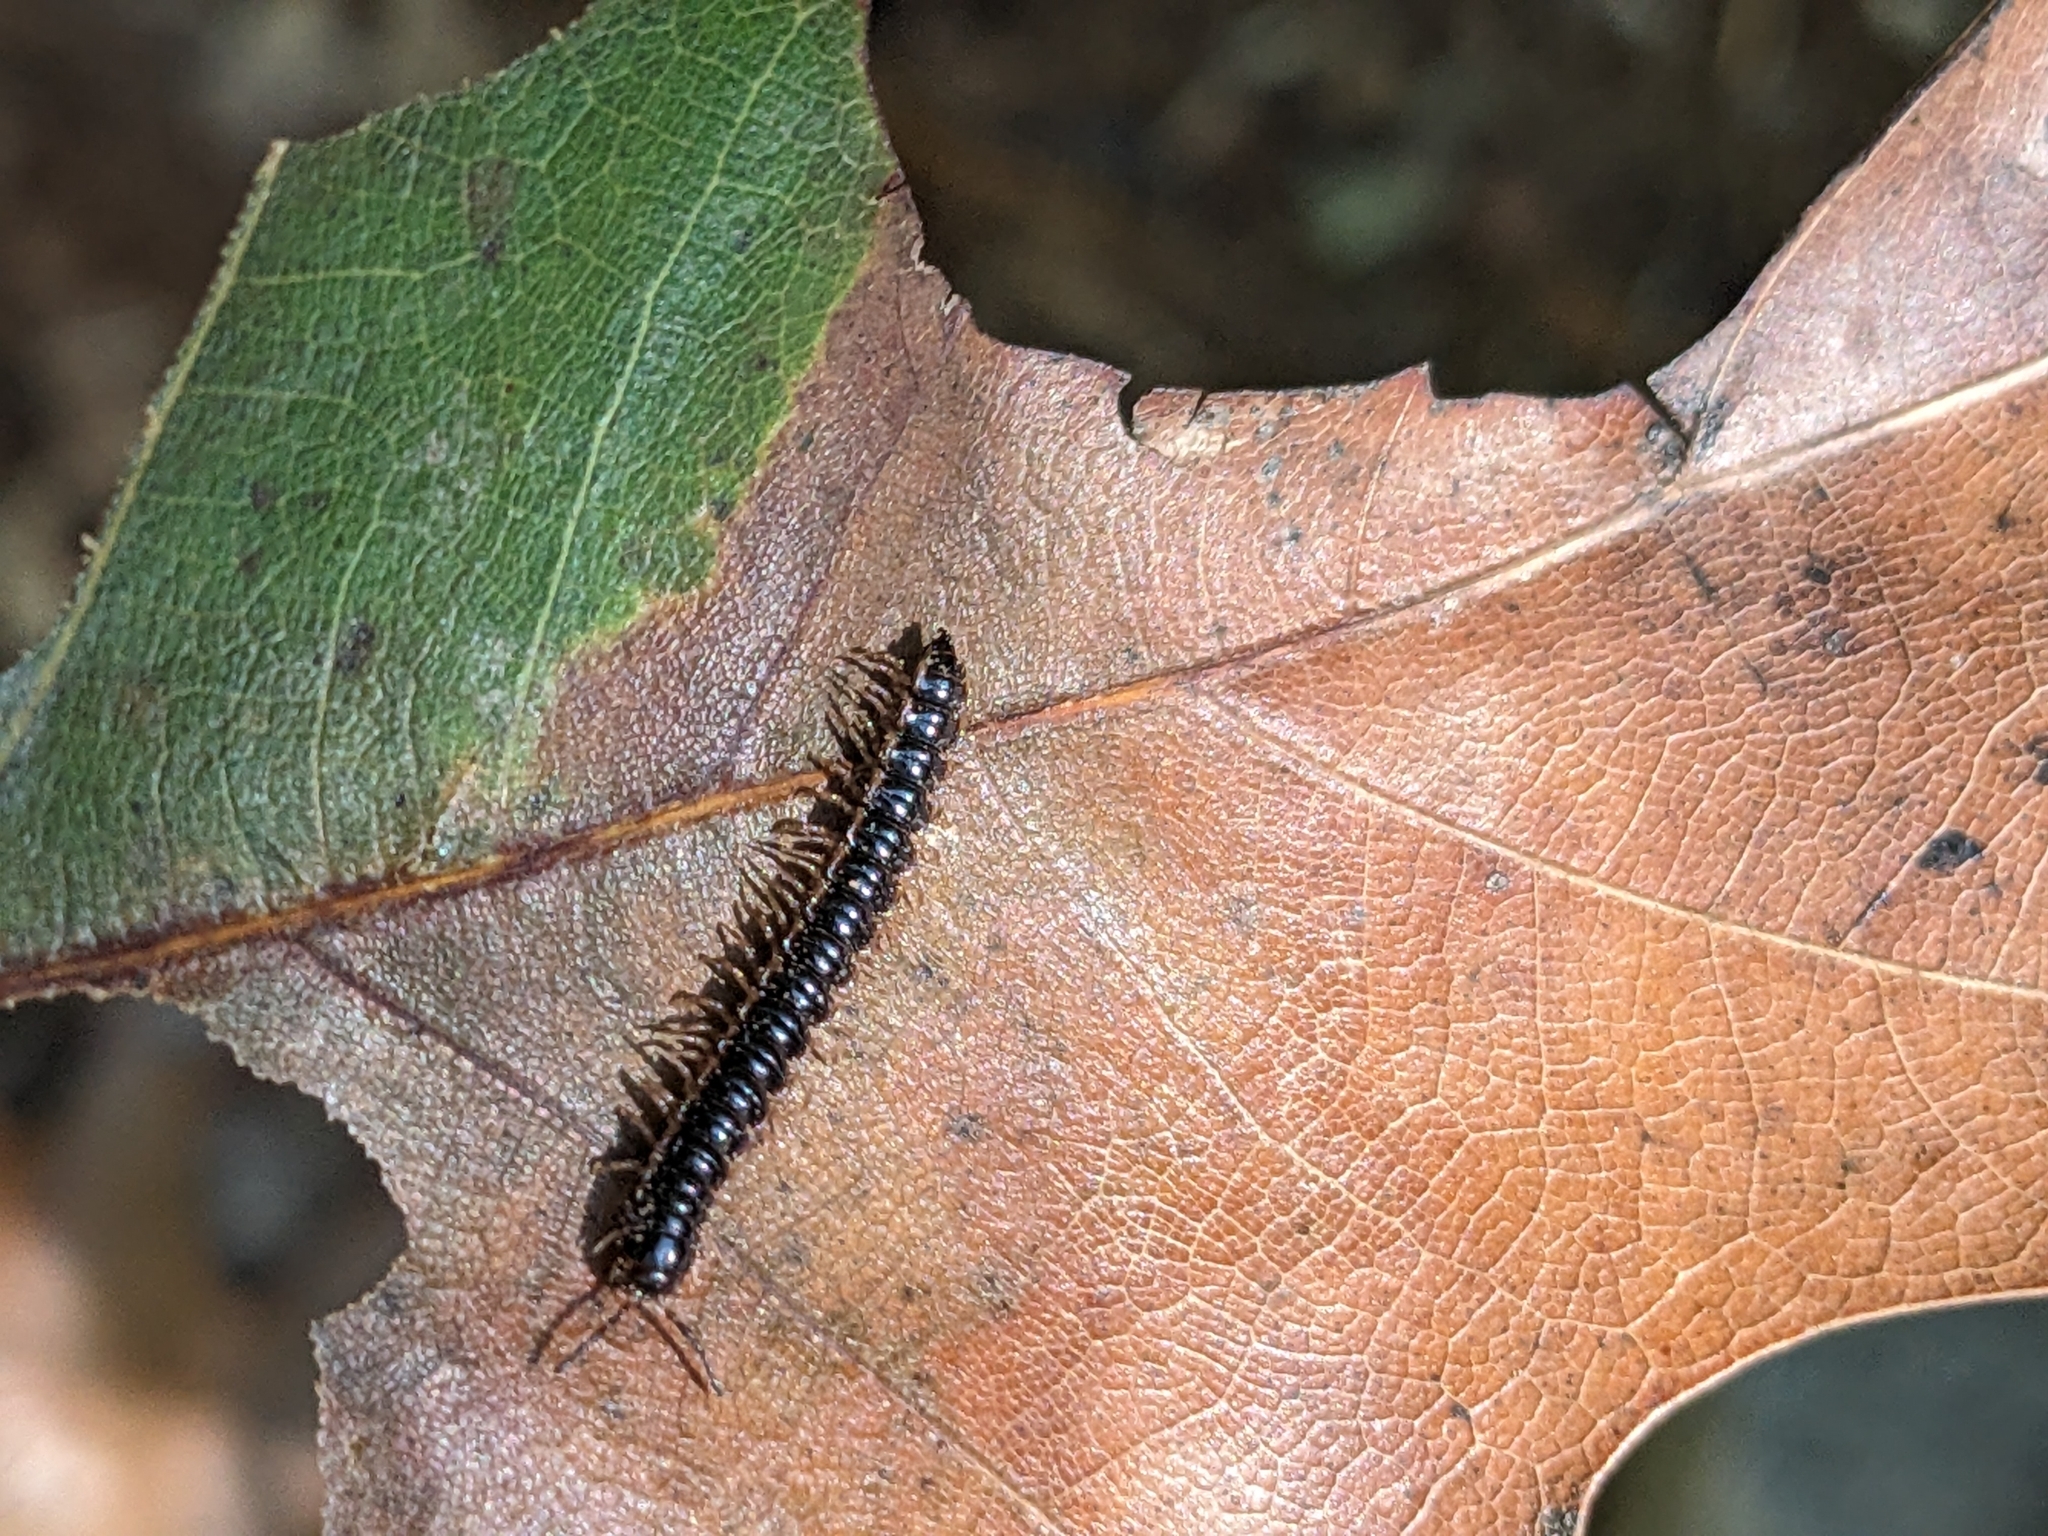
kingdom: Animalia
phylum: Arthropoda
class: Diplopoda
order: Polydesmida
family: Paradoxosomatidae
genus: Oxidus
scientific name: Oxidus gracilis
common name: Greenhouse millipede
